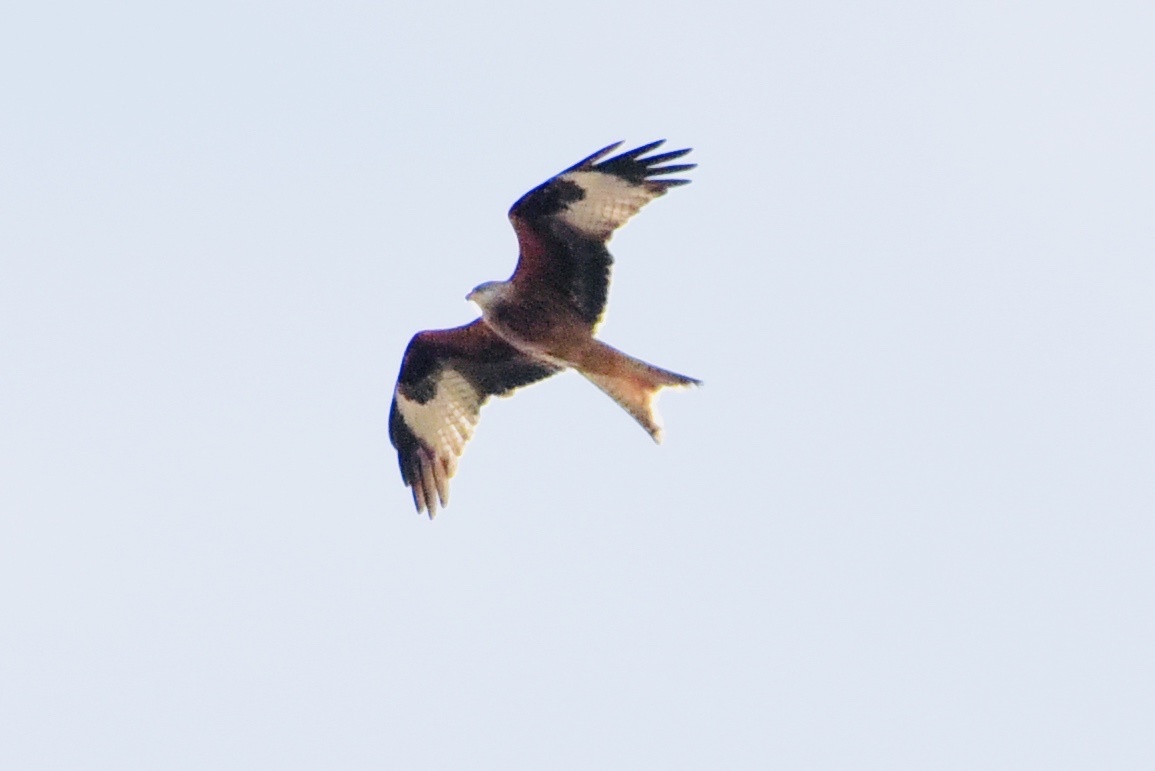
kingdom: Animalia
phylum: Chordata
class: Aves
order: Accipitriformes
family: Accipitridae
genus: Milvus
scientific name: Milvus milvus
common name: Red kite
